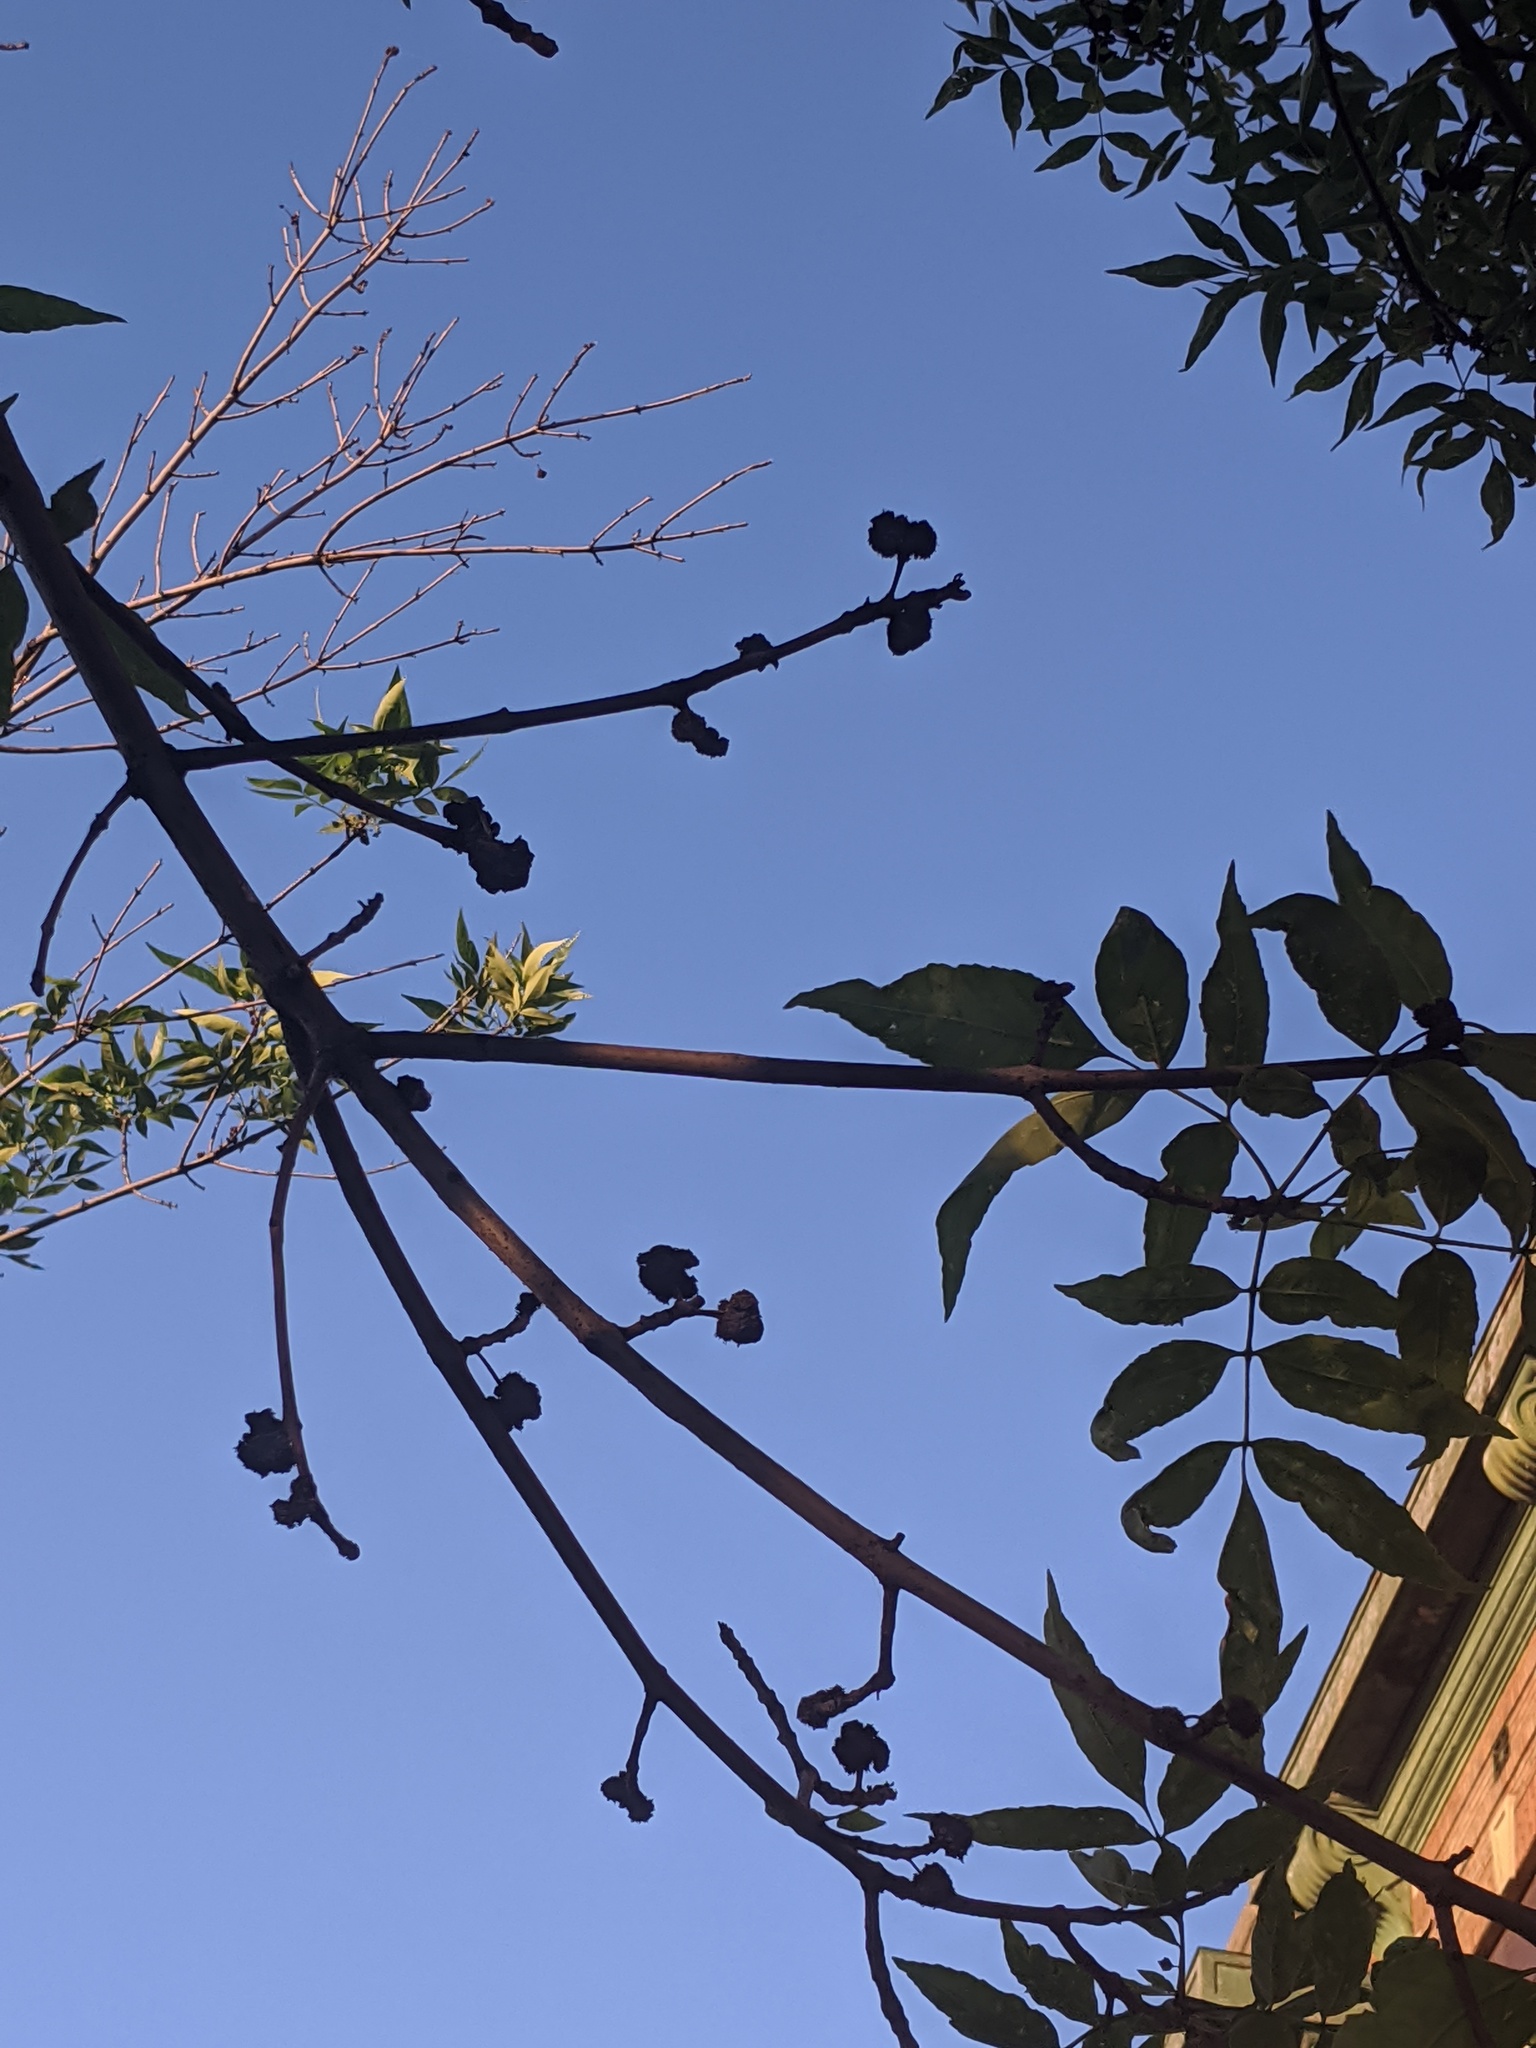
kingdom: Animalia
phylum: Arthropoda
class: Arachnida
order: Trombidiformes
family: Eriophyidae
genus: Aceria
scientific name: Aceria fraxiniflora
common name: Ash flower gall mite
